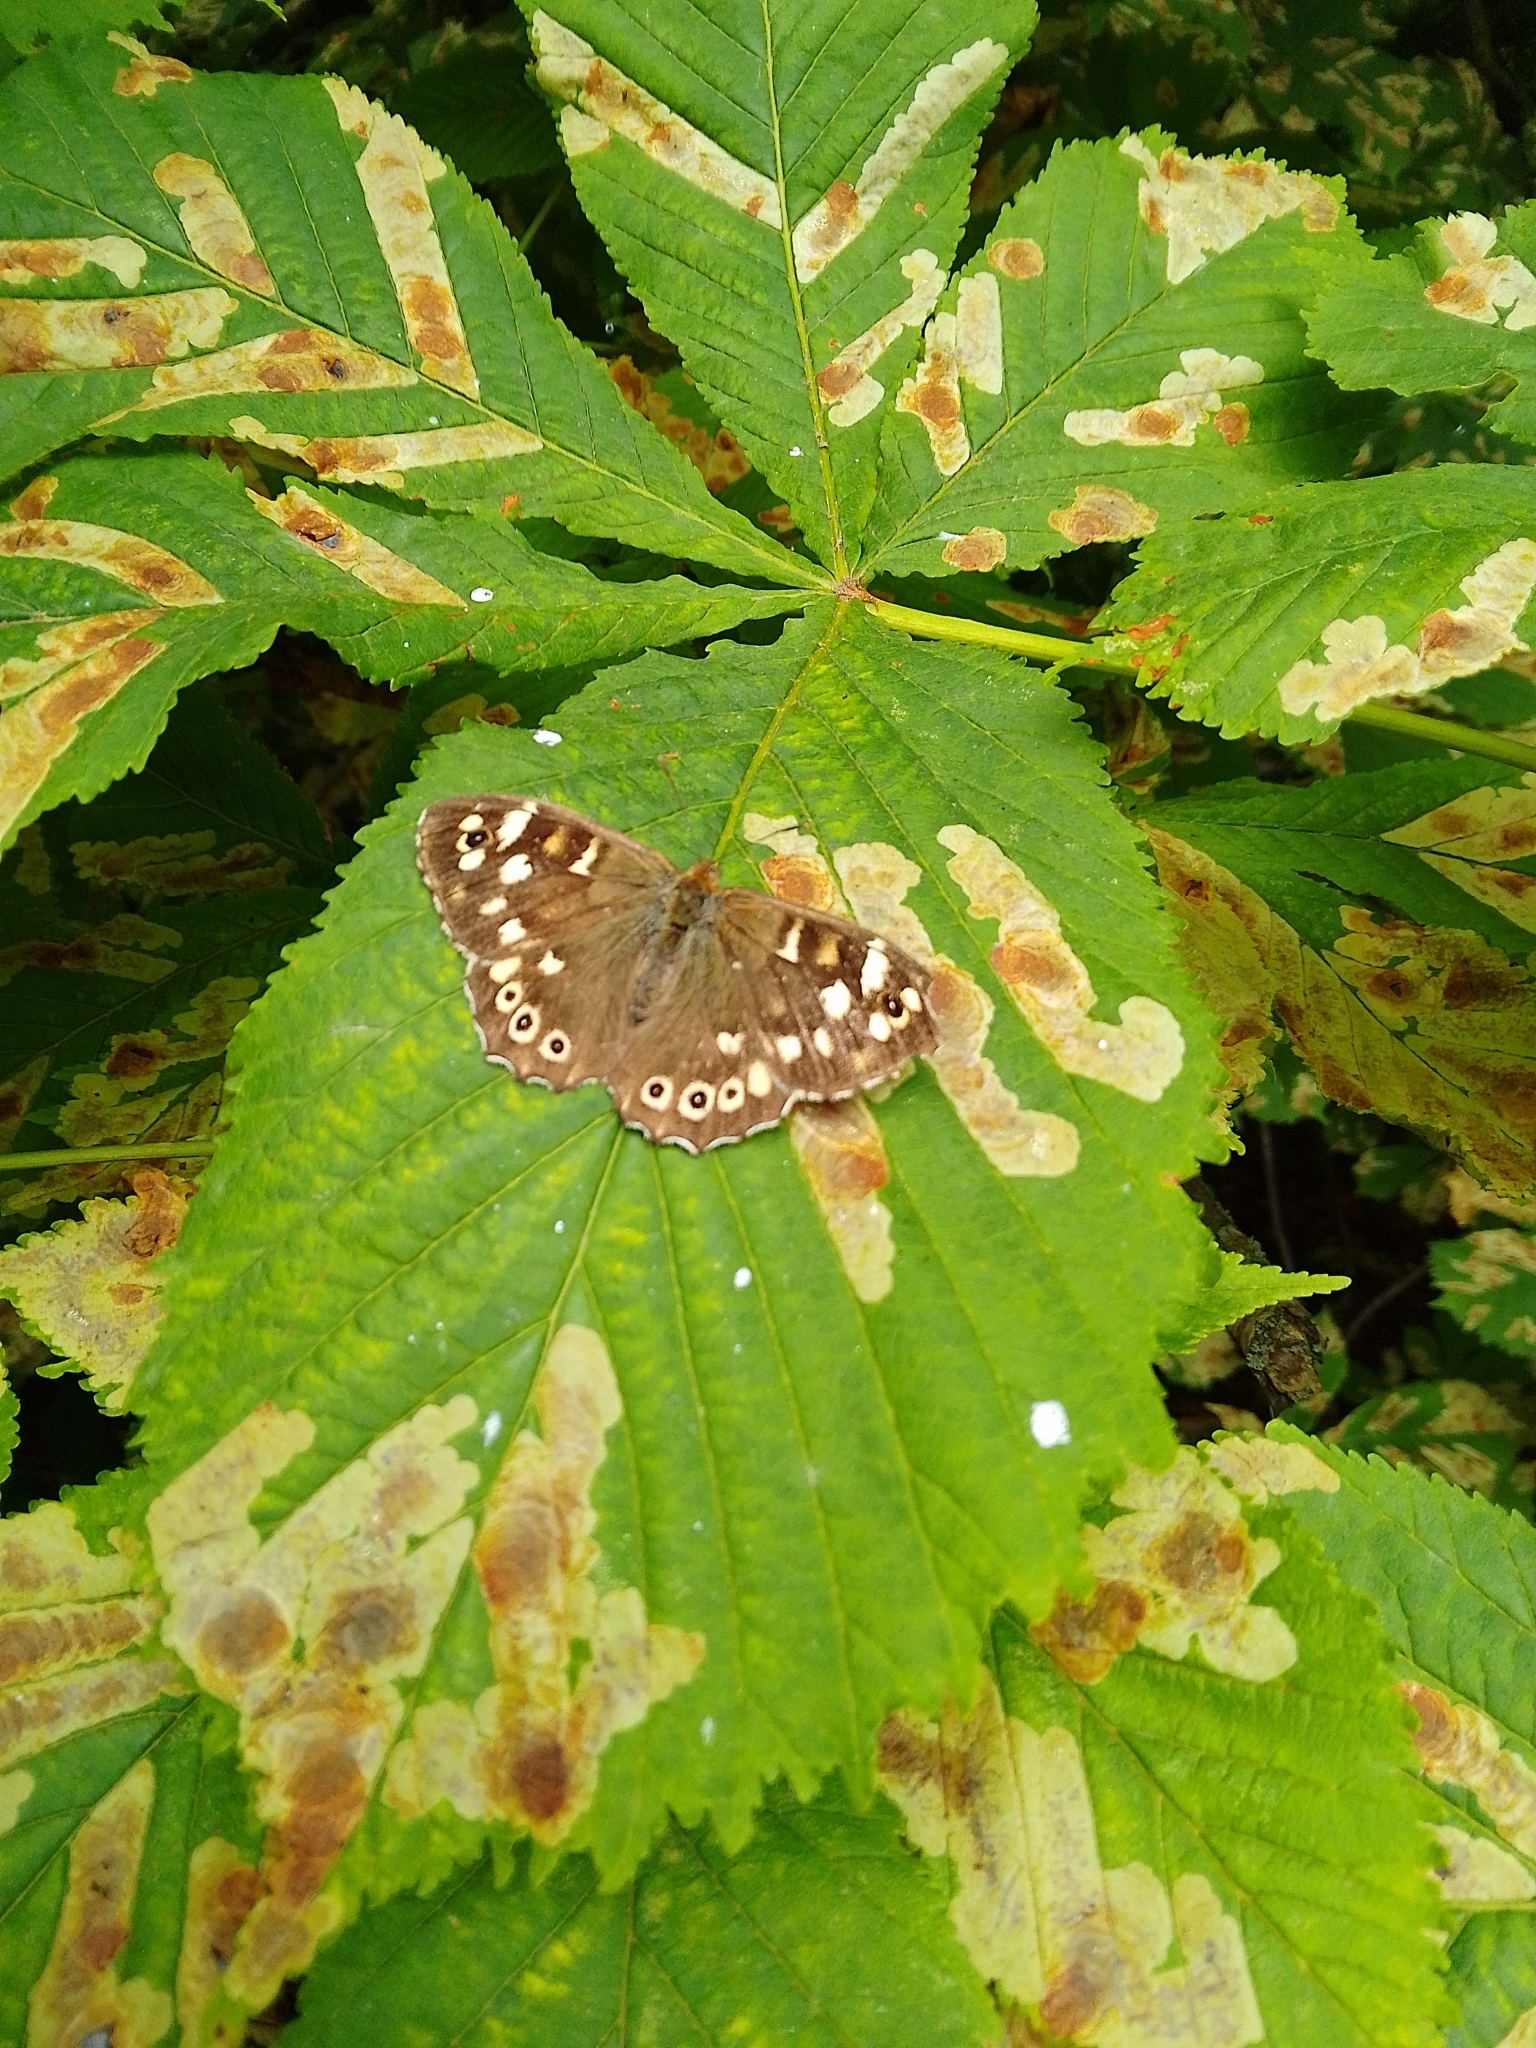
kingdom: Animalia
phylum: Arthropoda
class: Insecta
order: Lepidoptera
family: Nymphalidae
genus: Pararge
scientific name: Pararge aegeria
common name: Speckled wood
